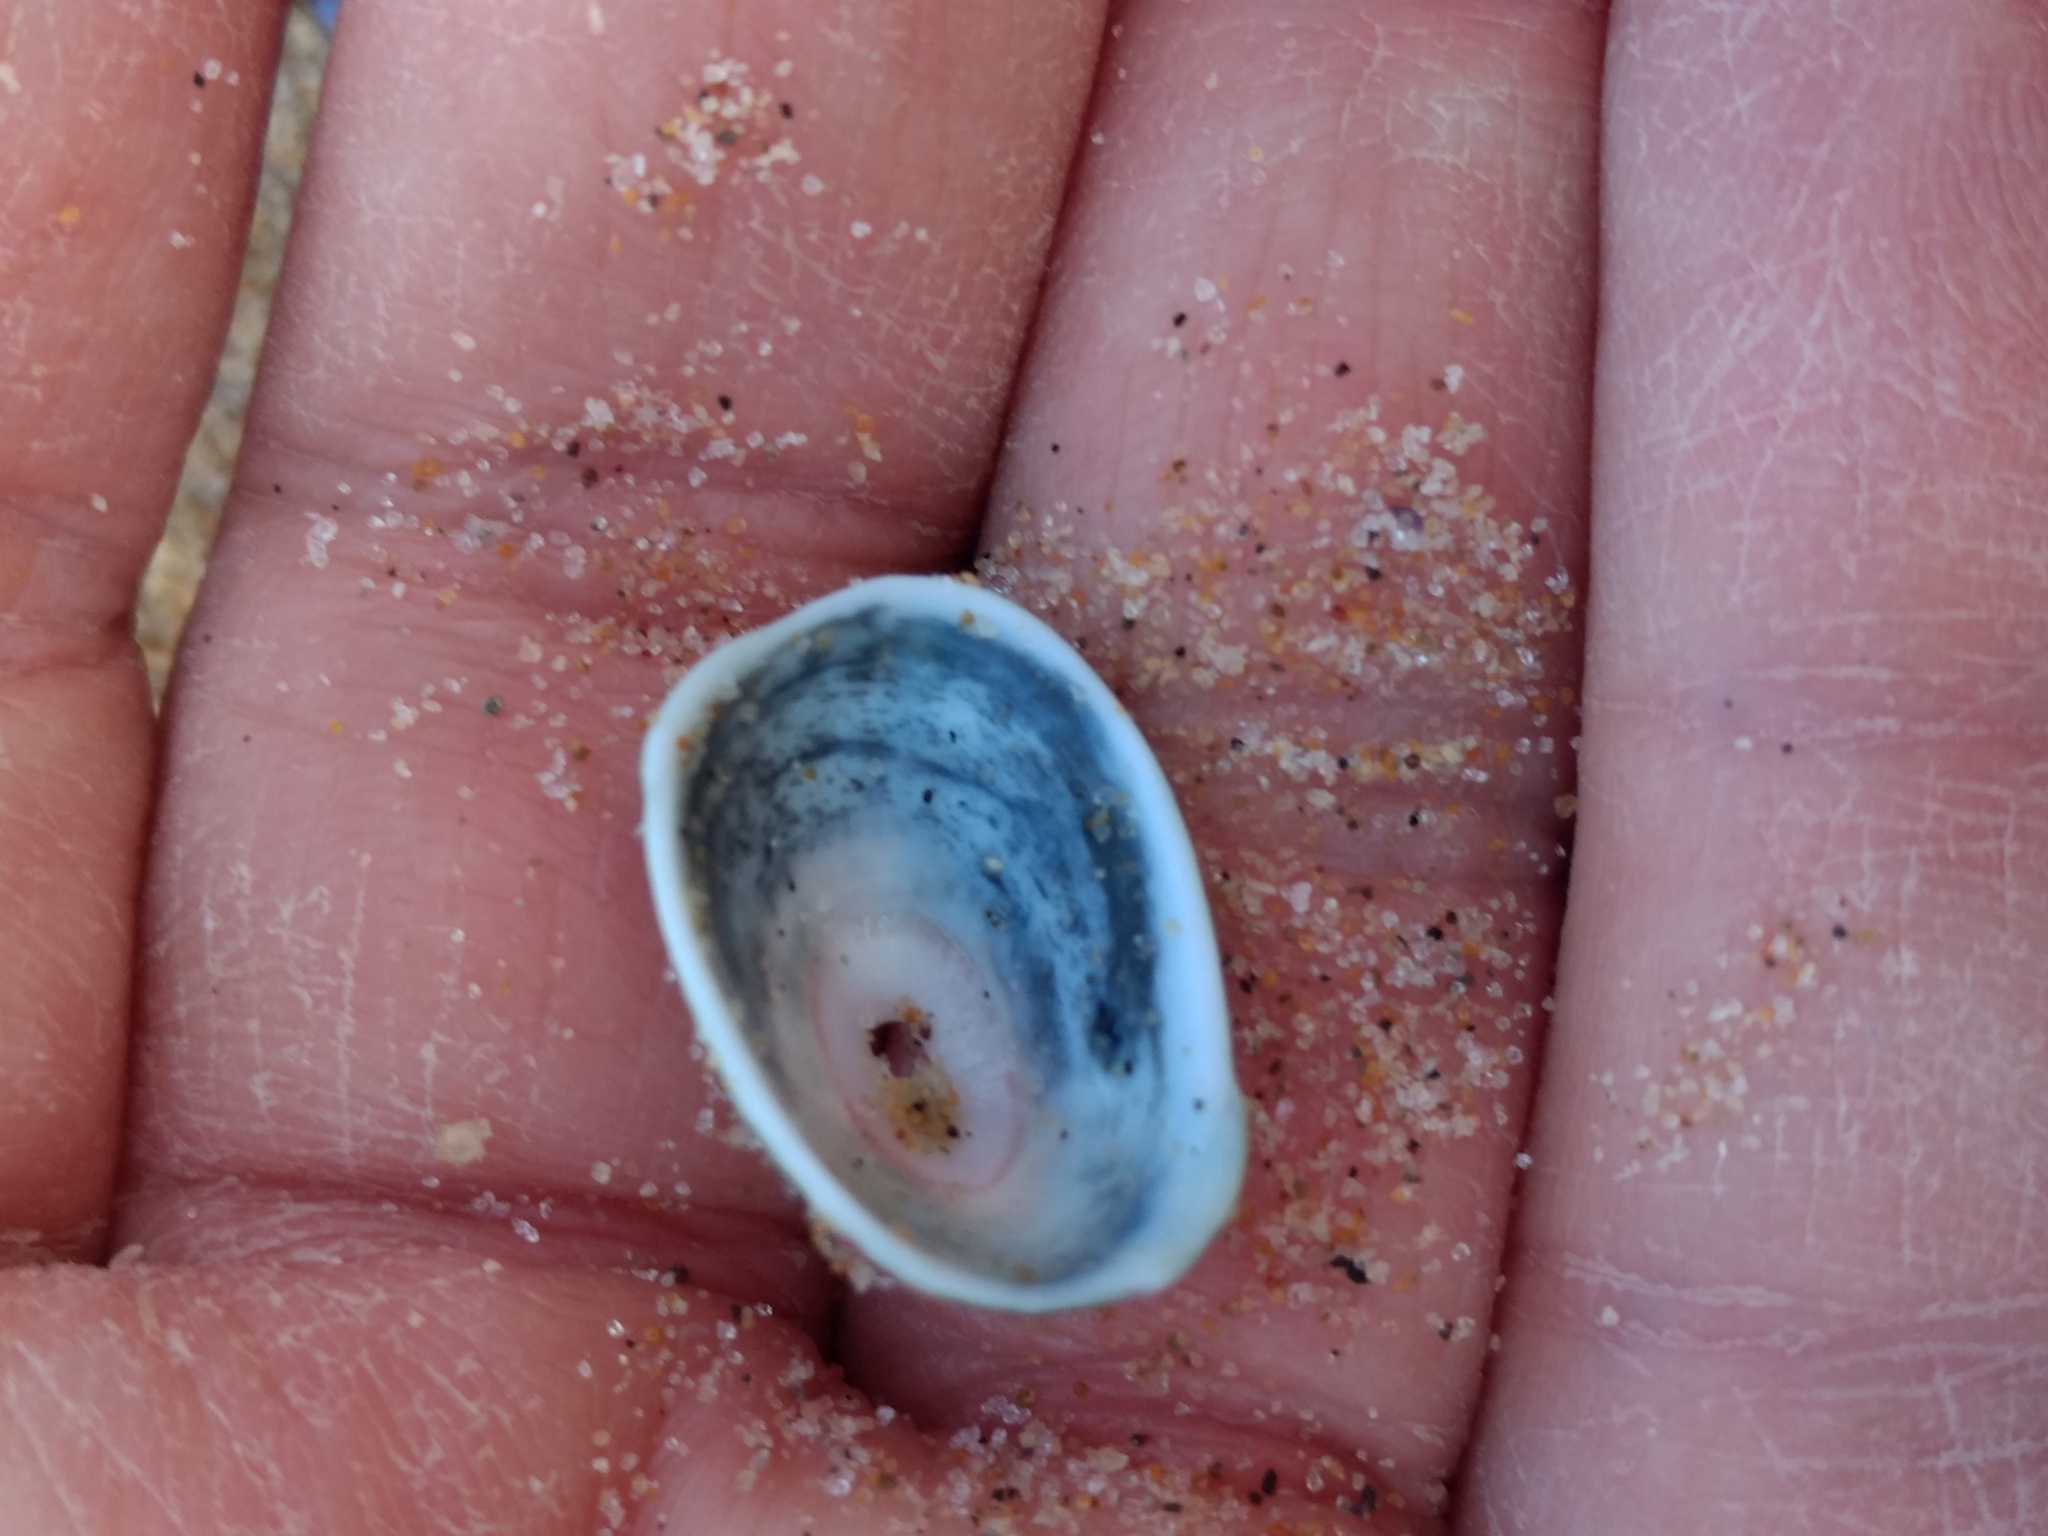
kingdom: Animalia
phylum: Mollusca
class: Gastropoda
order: Lepetellida
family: Fissurellidae
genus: Fissurella
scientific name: Fissurella volcano
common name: Volcano keyhole limpet
